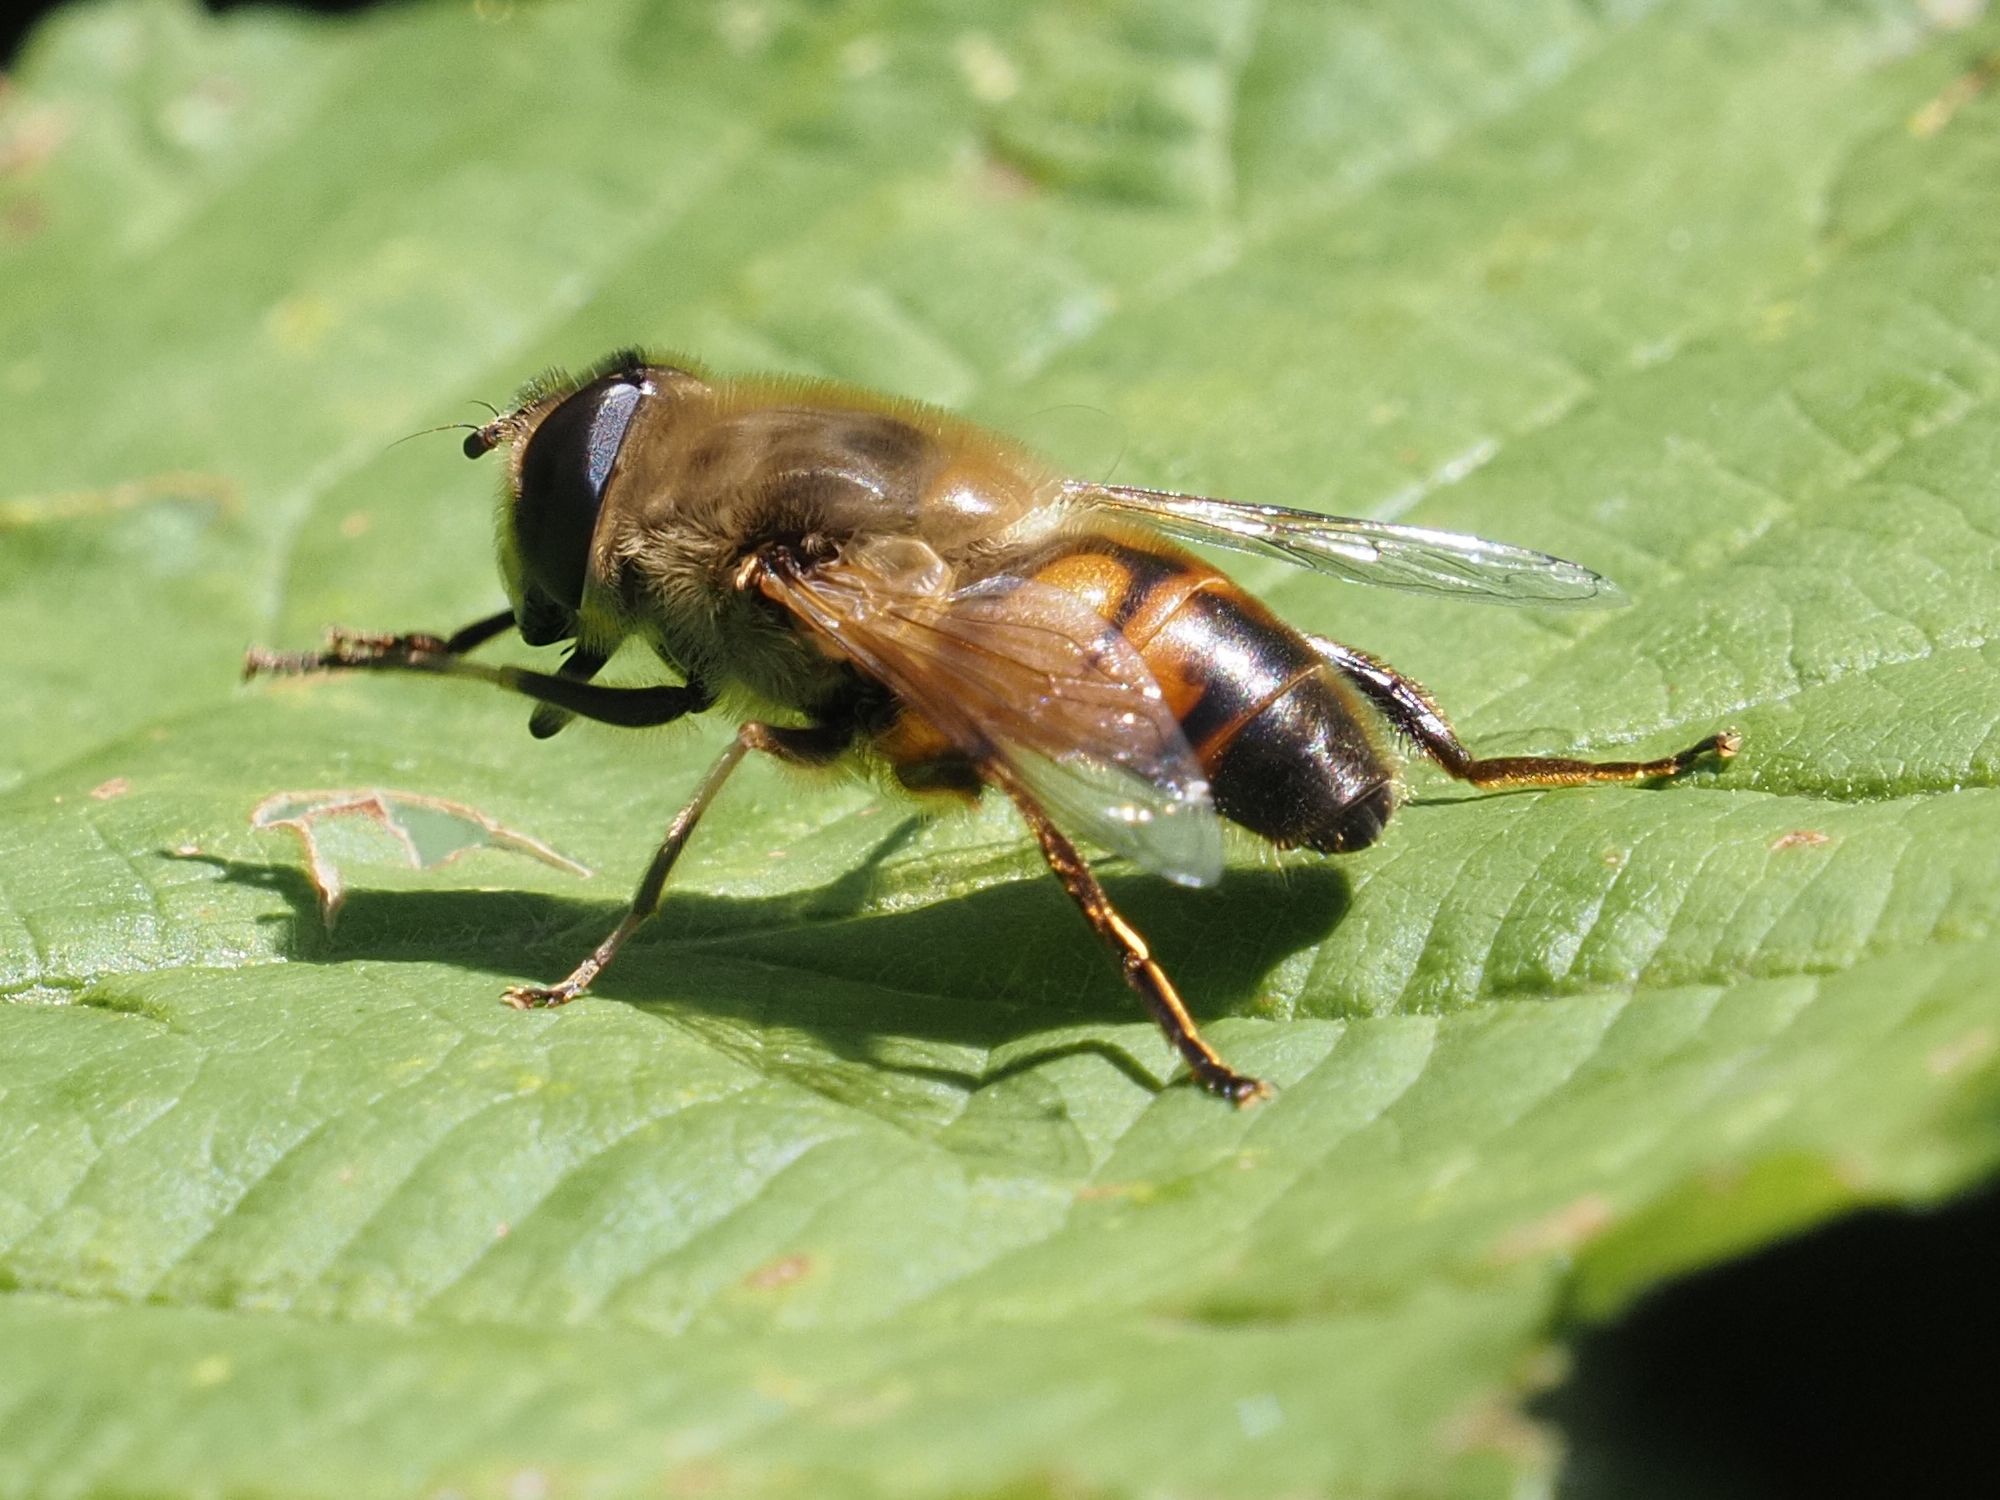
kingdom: Animalia
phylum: Arthropoda
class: Insecta
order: Diptera
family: Syrphidae
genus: Eristalis
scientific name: Eristalis tenax
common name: Drone fly
